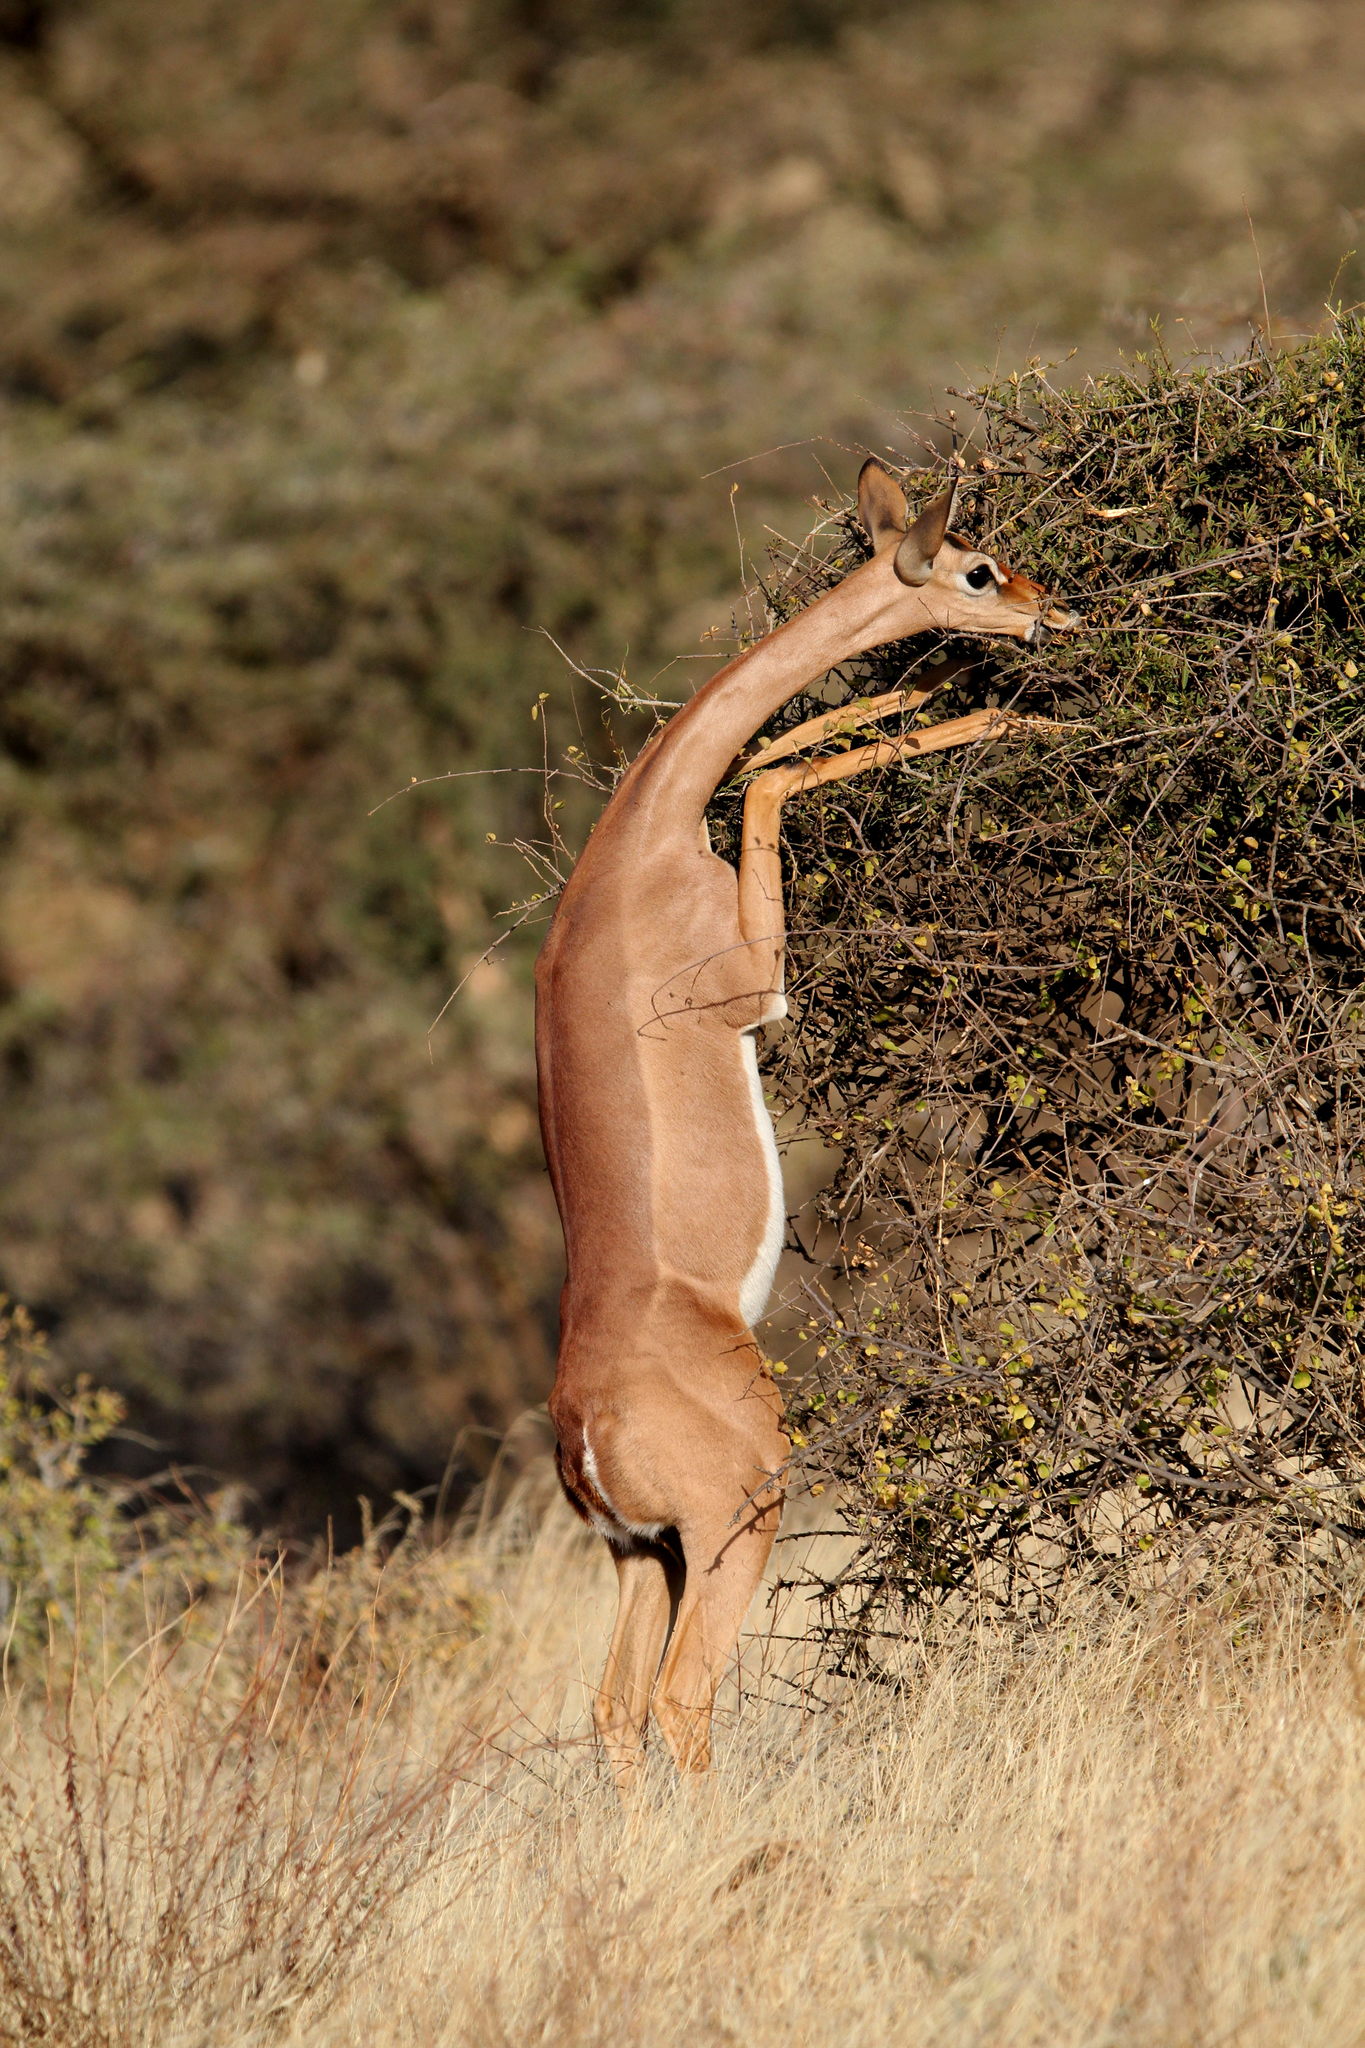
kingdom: Animalia
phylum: Chordata
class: Mammalia
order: Artiodactyla
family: Bovidae
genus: Litocranius
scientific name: Litocranius walleri
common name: Gerenuk
